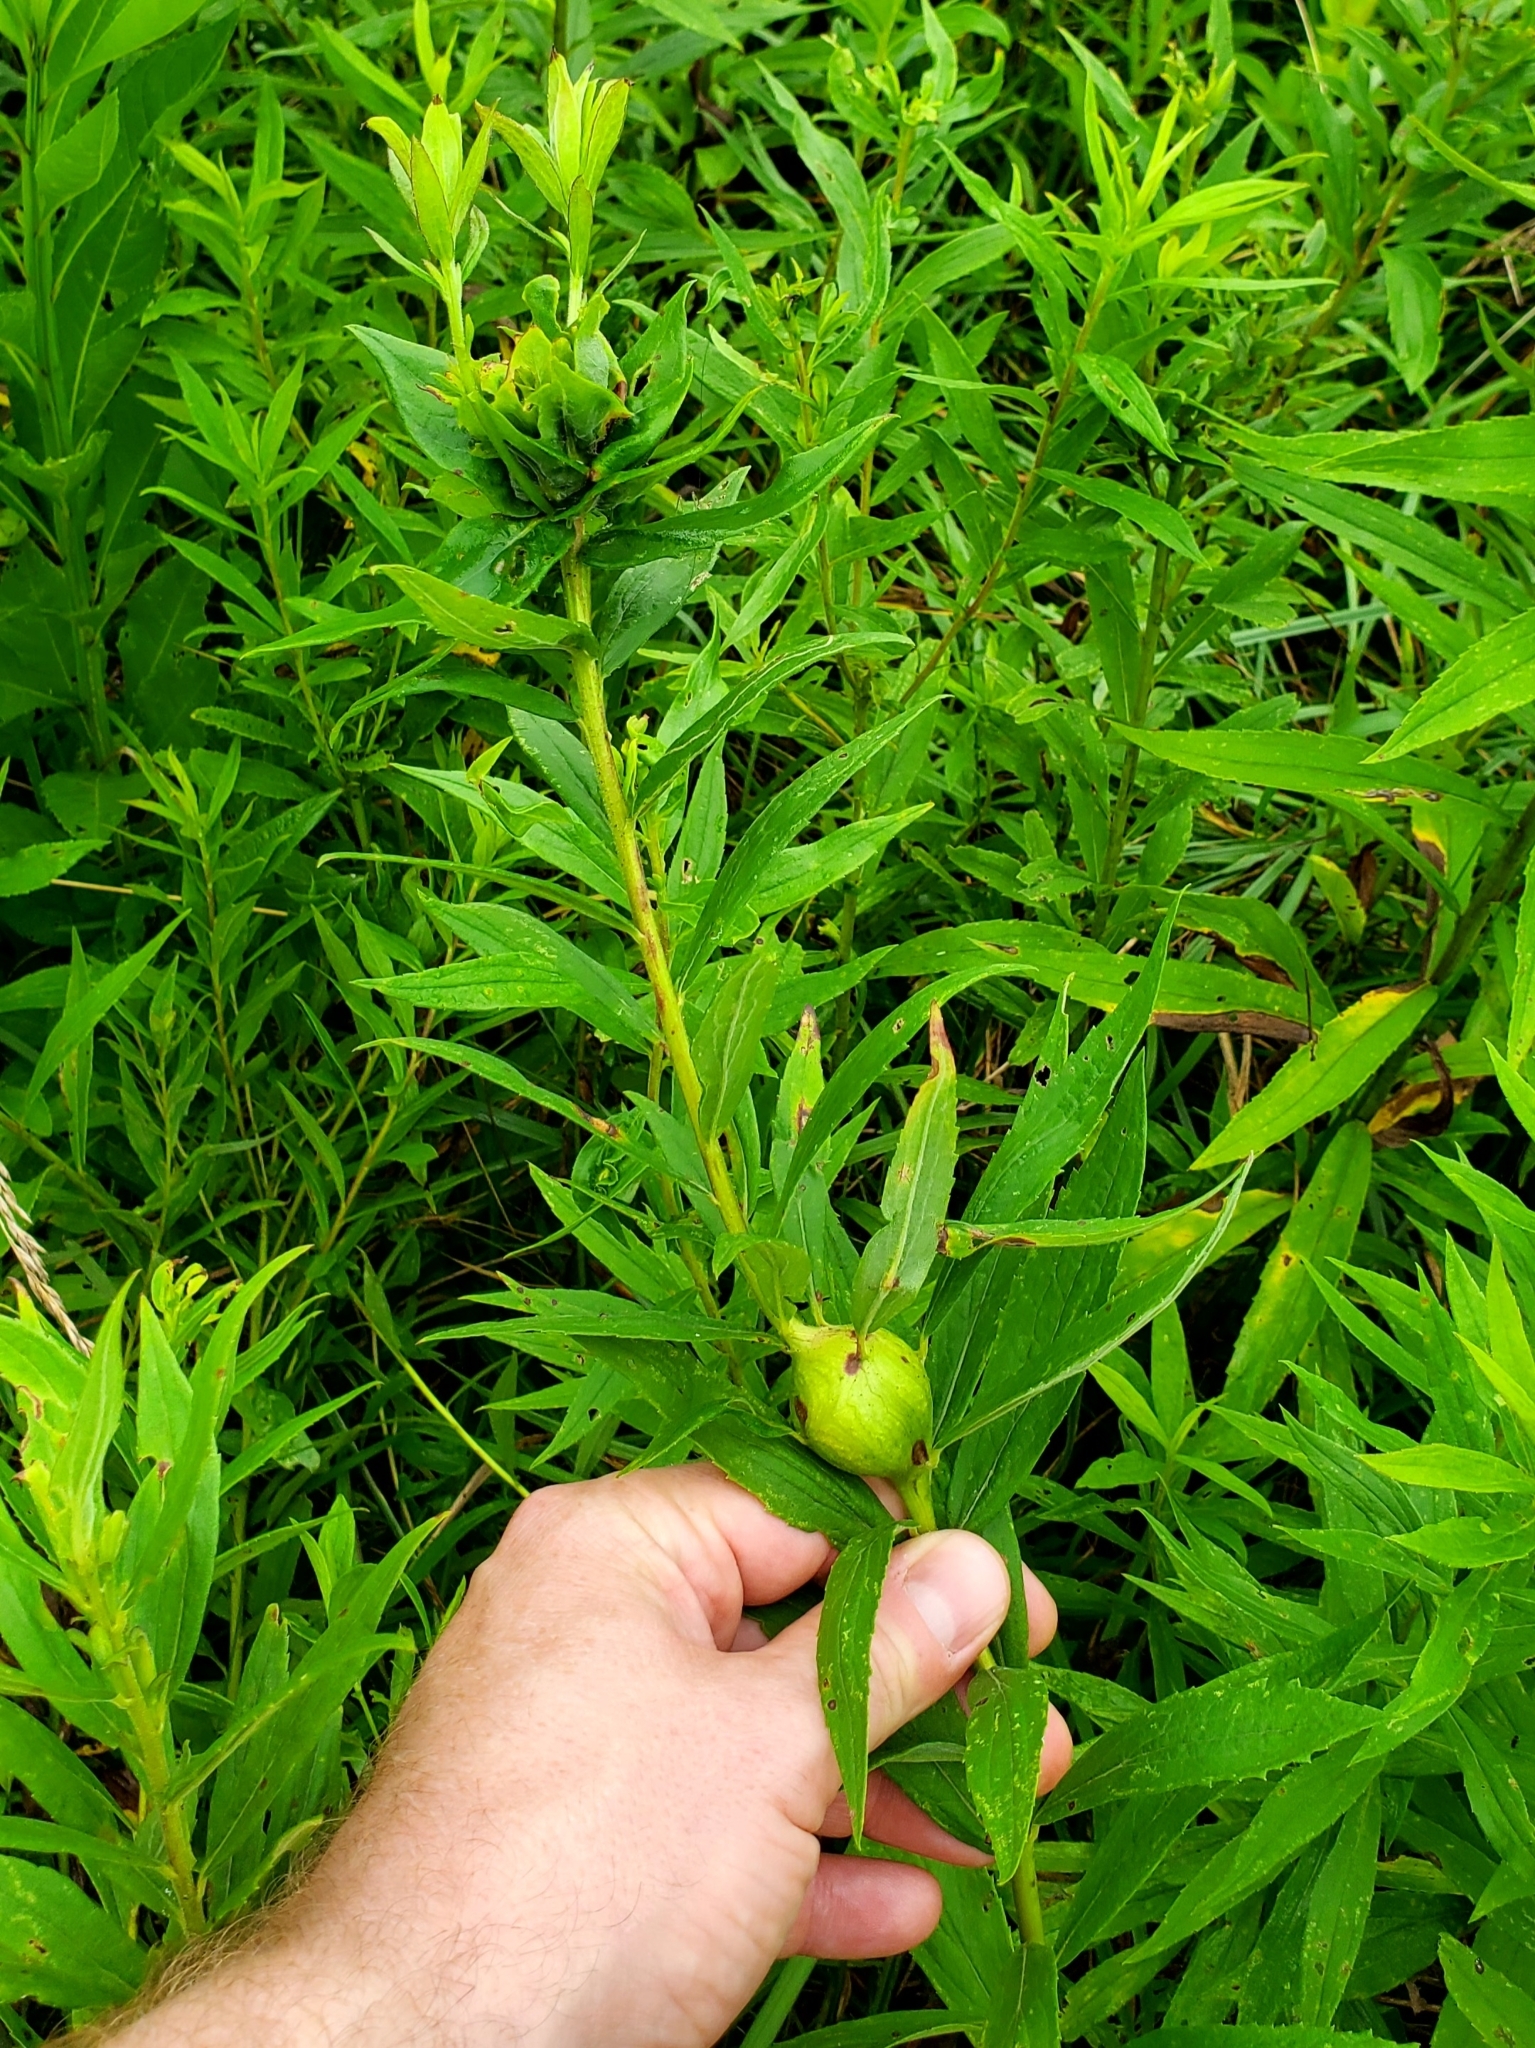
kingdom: Animalia
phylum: Arthropoda
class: Insecta
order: Diptera
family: Tephritidae
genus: Eurosta
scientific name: Eurosta solidaginis
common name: Goldenrod gall fly
